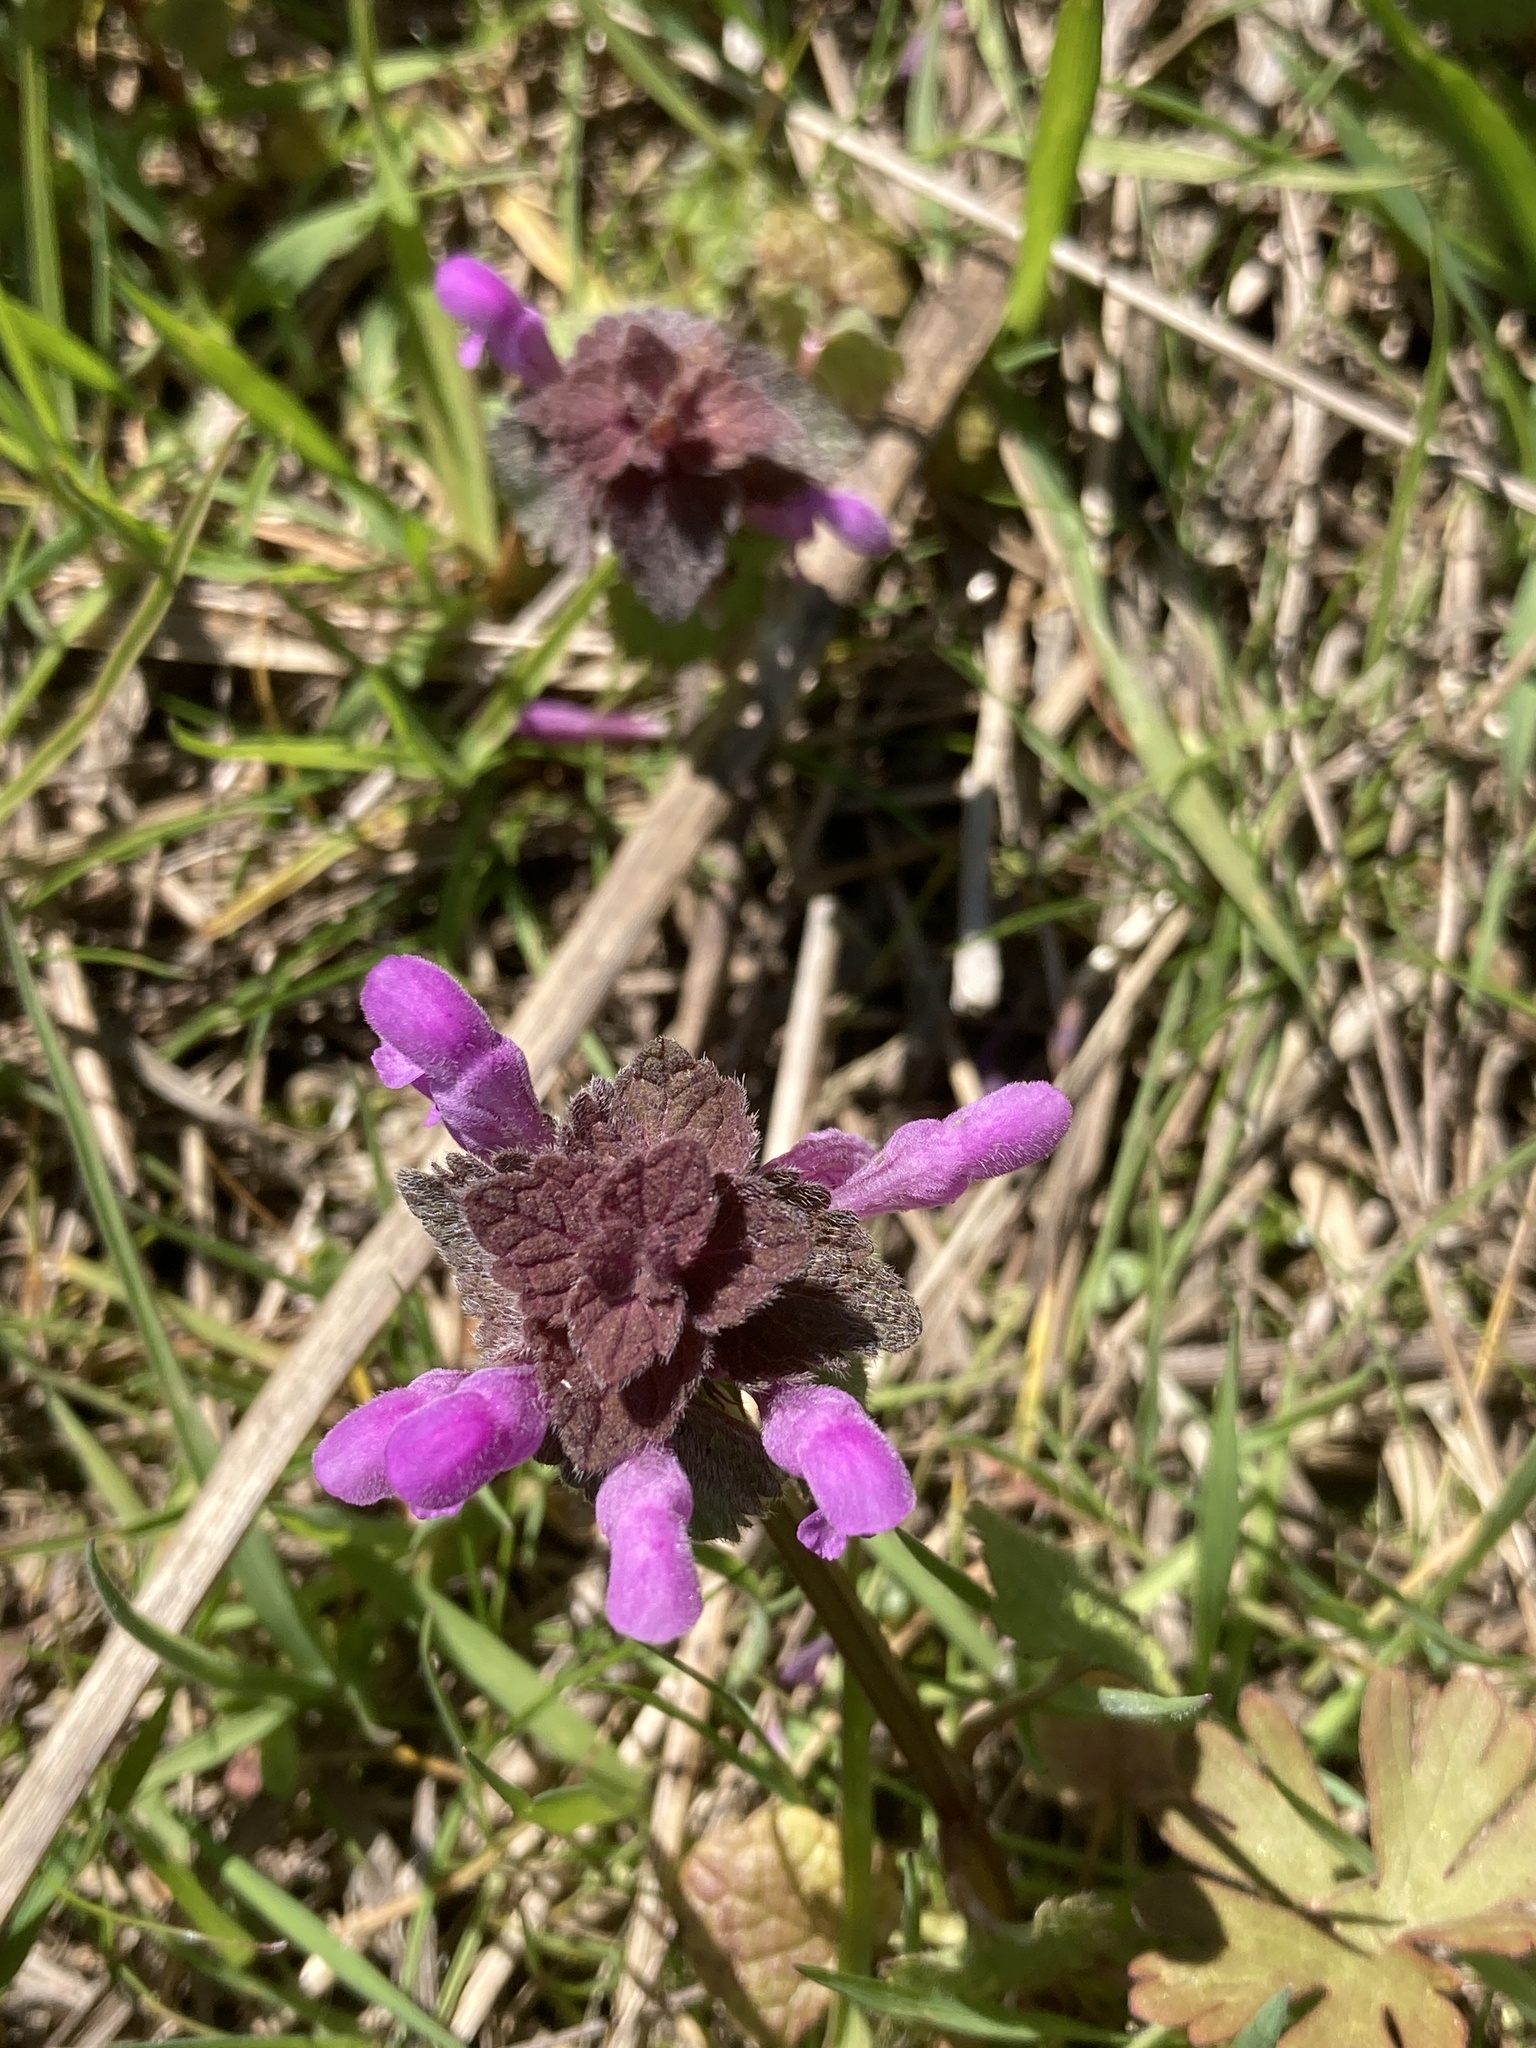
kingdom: Plantae
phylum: Tracheophyta
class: Magnoliopsida
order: Lamiales
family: Lamiaceae
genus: Lamium
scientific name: Lamium purpureum
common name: Red dead-nettle
